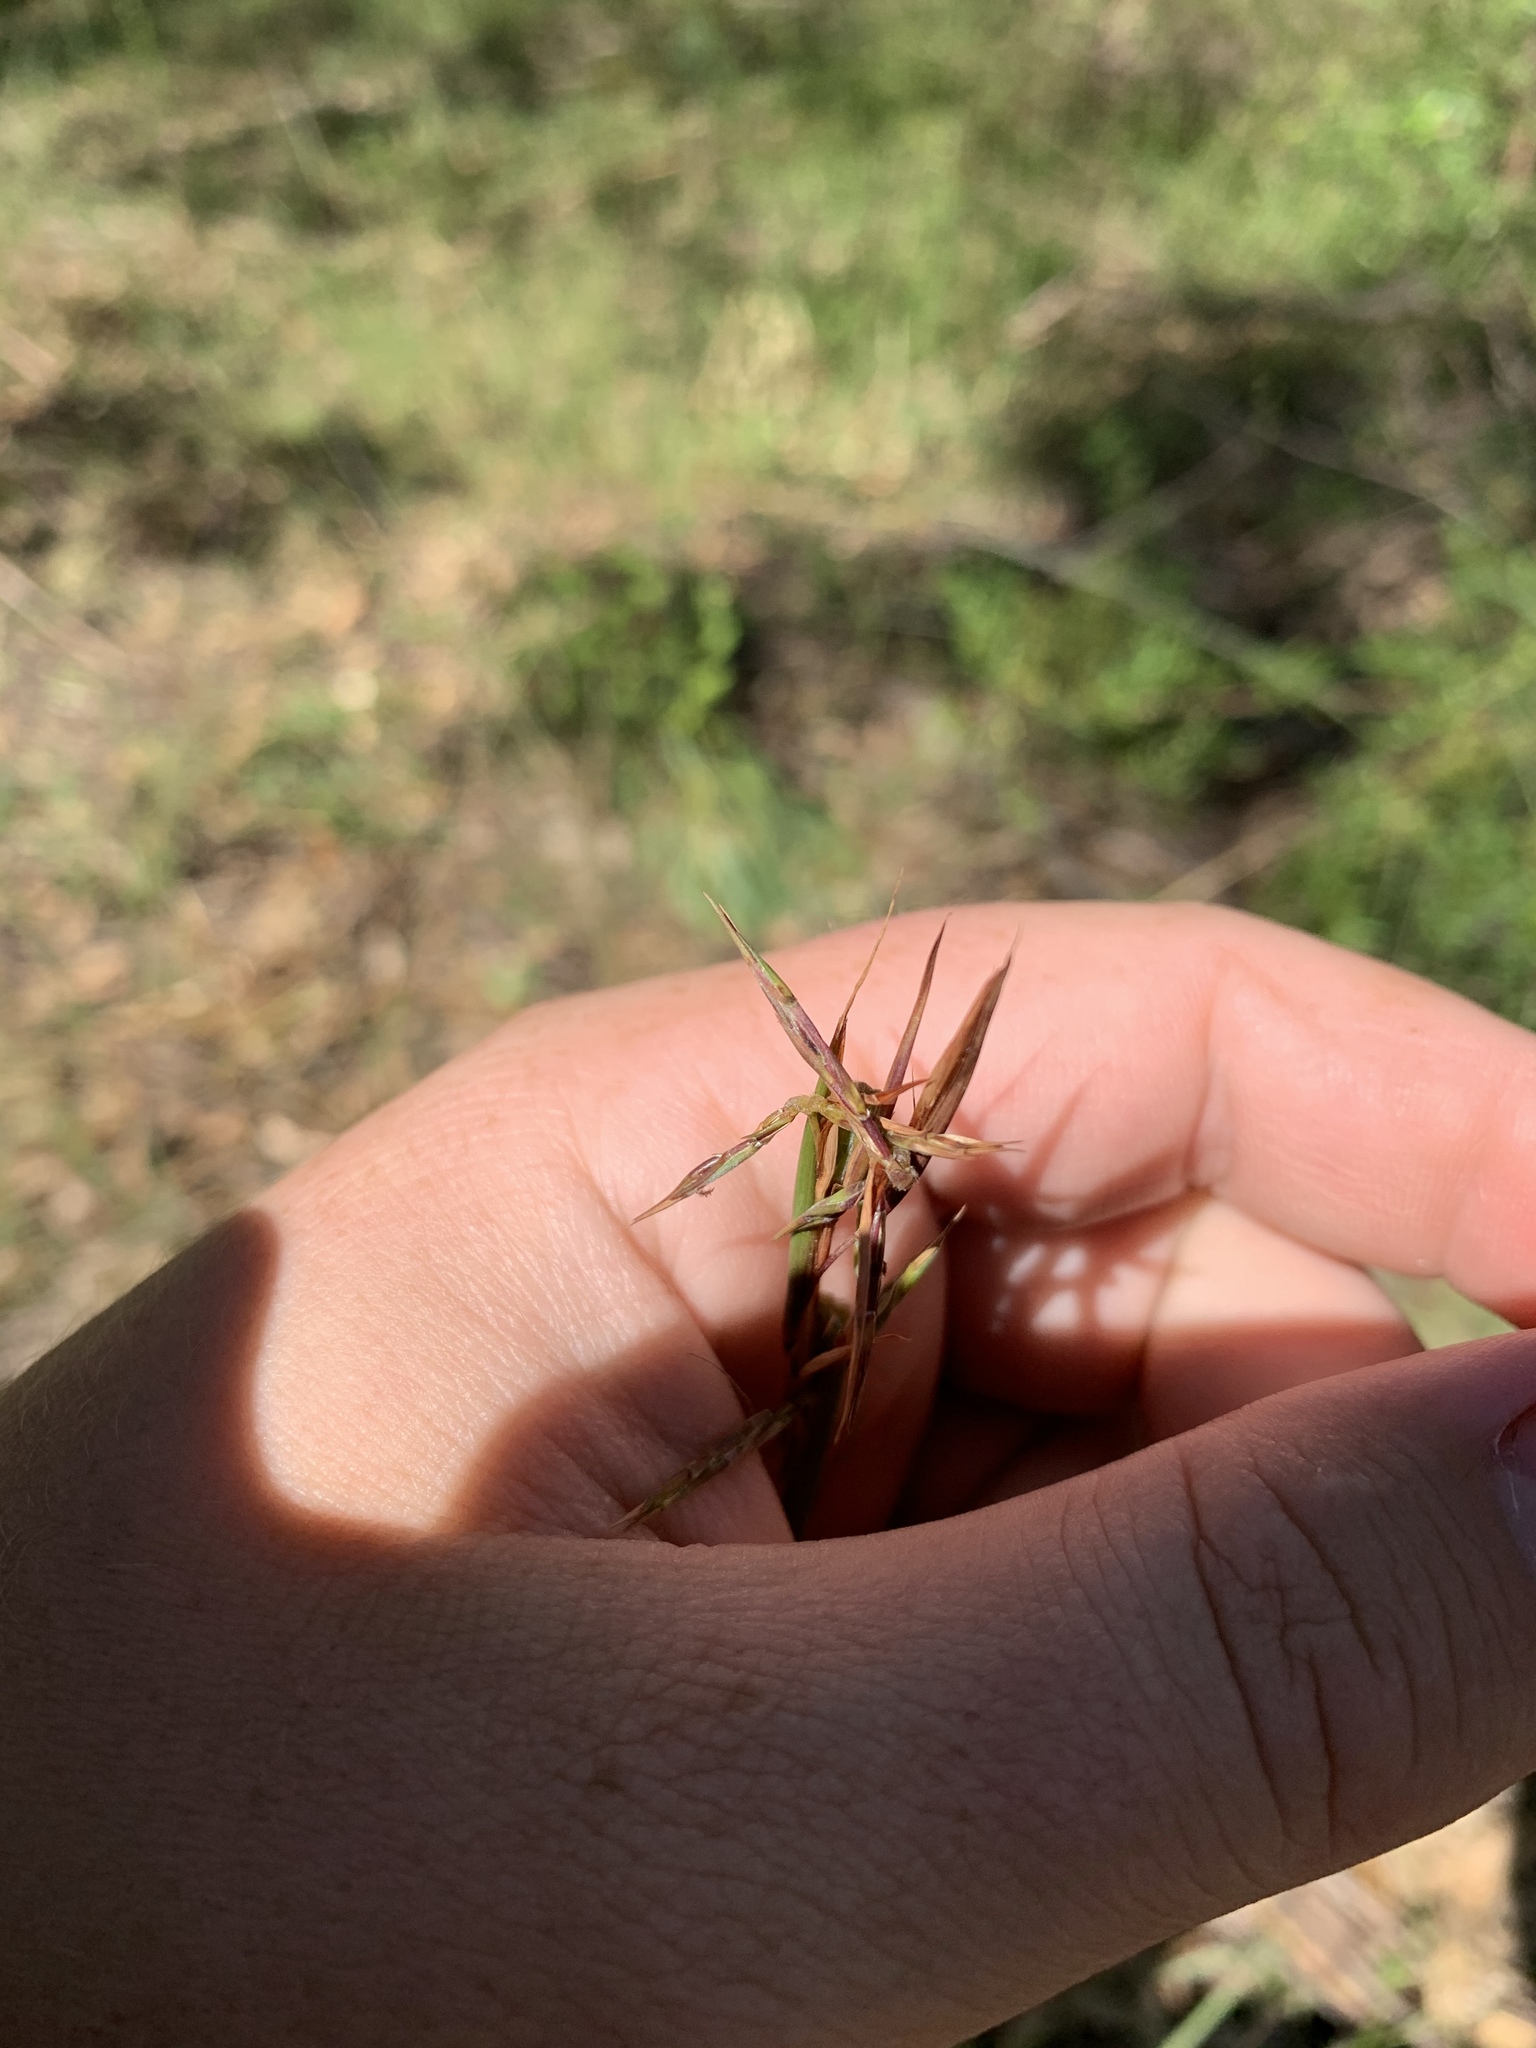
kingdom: Plantae
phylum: Tracheophyta
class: Liliopsida
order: Poales
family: Poaceae
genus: Cymbopogon
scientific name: Cymbopogon refractus
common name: Barbwire grass
